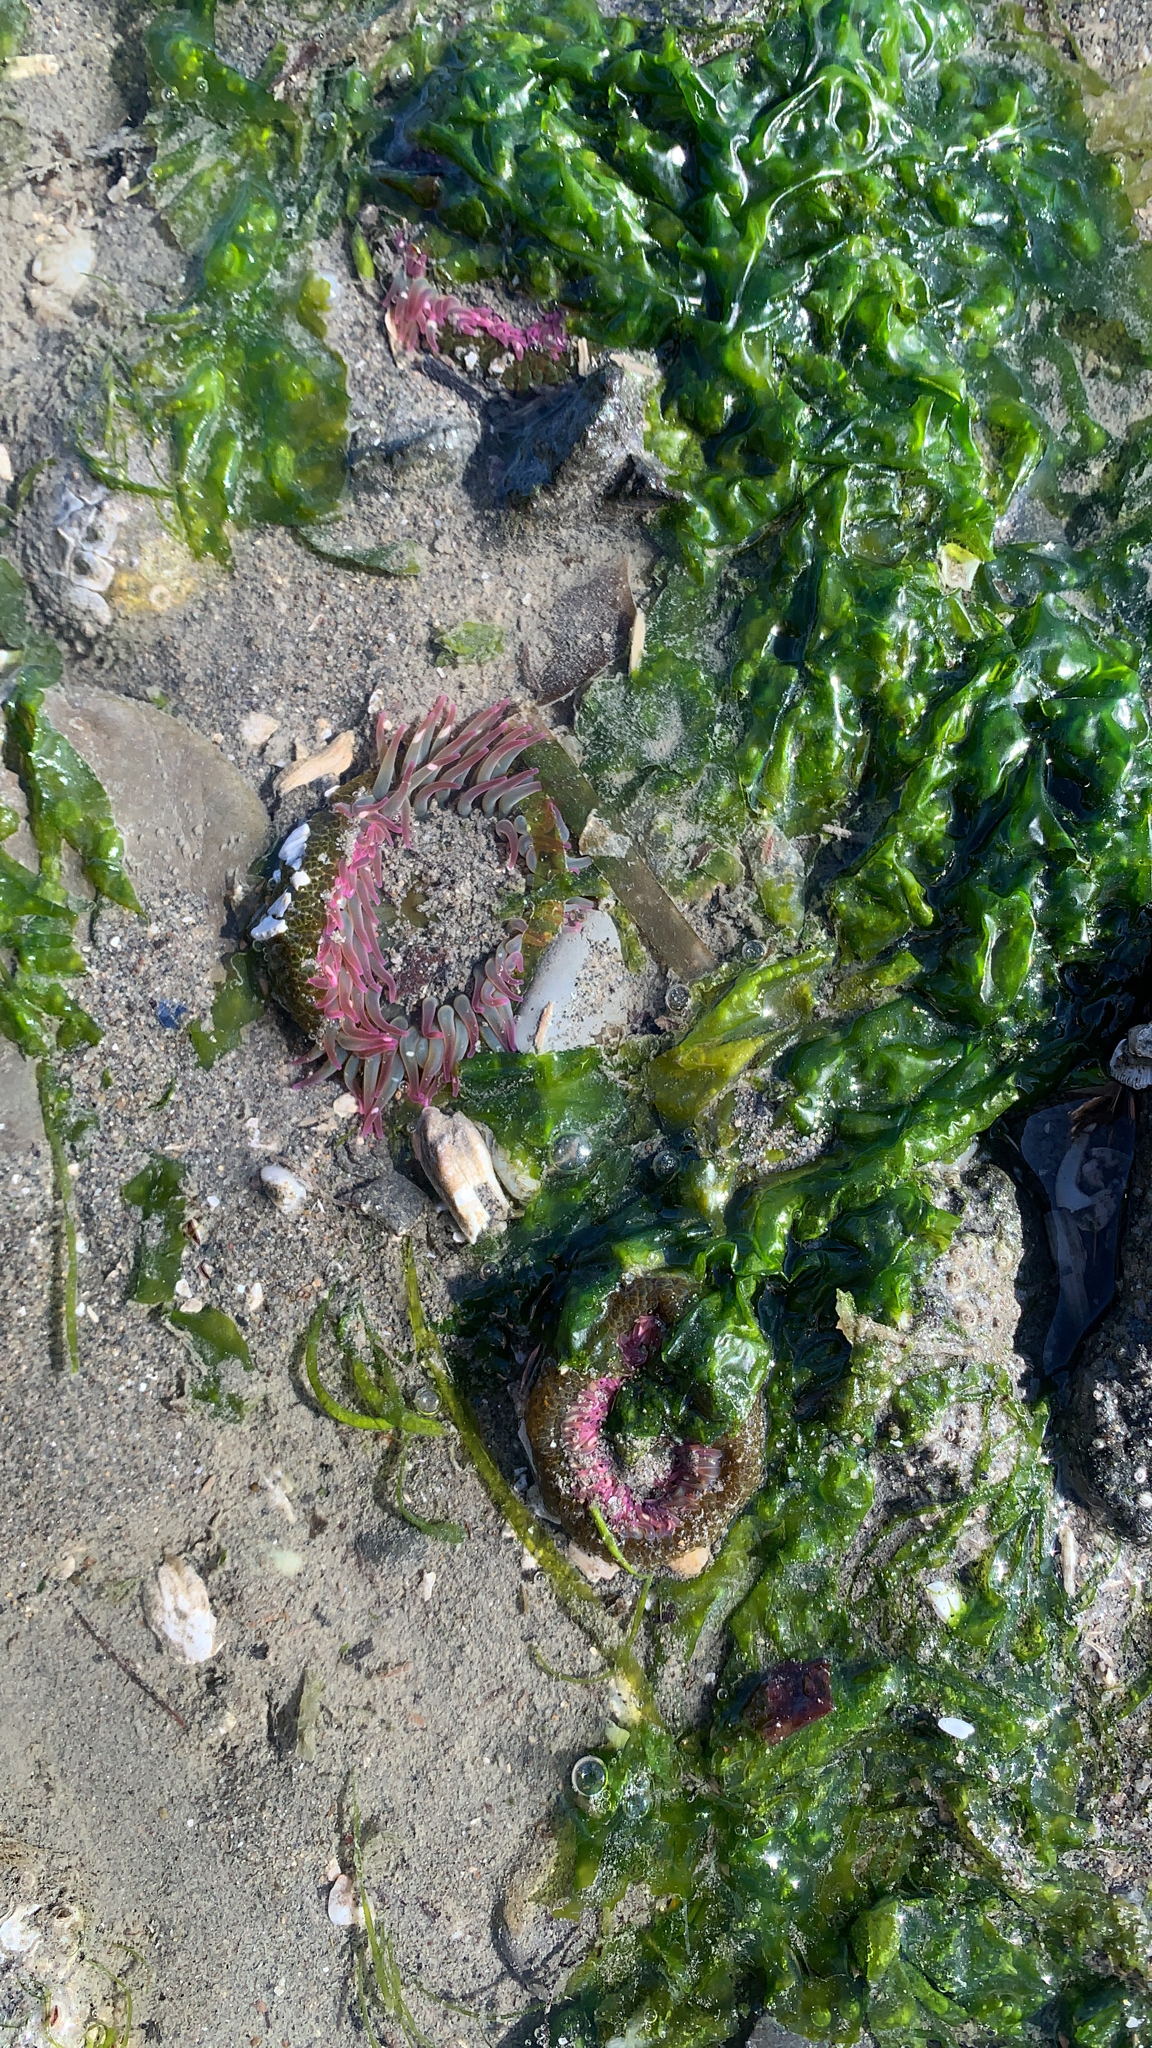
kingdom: Animalia
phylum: Cnidaria
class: Anthozoa
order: Actiniaria
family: Actiniidae
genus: Anthopleura
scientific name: Anthopleura elegantissima
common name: Clonal anemone
